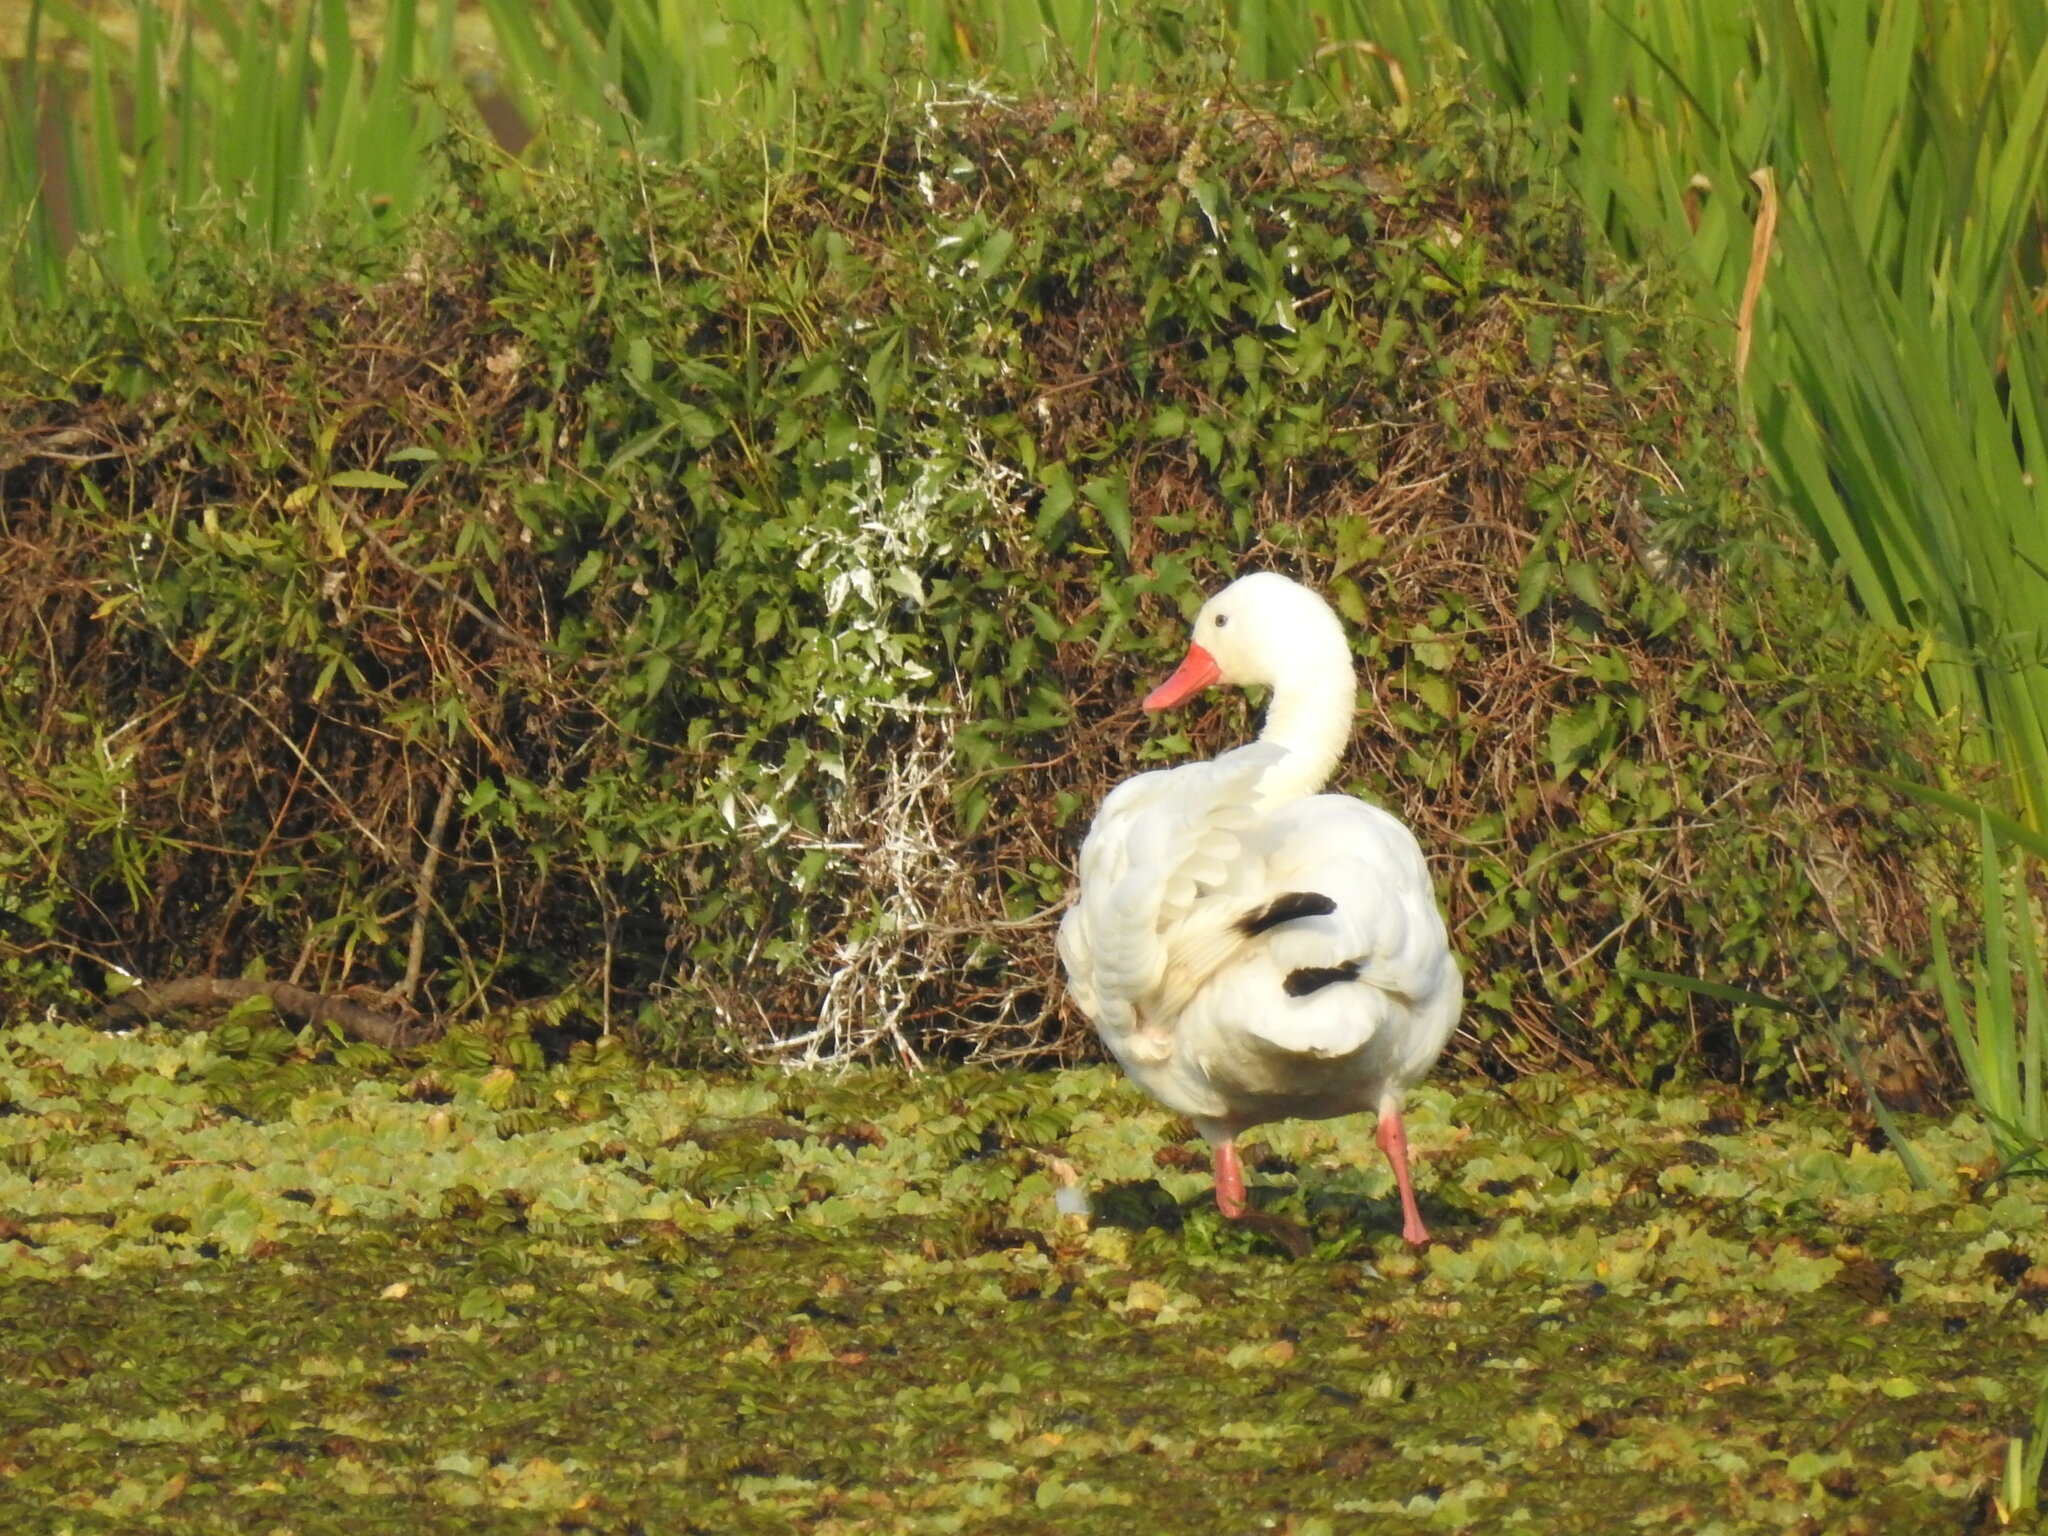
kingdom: Animalia
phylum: Chordata
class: Aves
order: Anseriformes
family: Anatidae
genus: Coscoroba
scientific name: Coscoroba coscoroba
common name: Coscoroba swan
